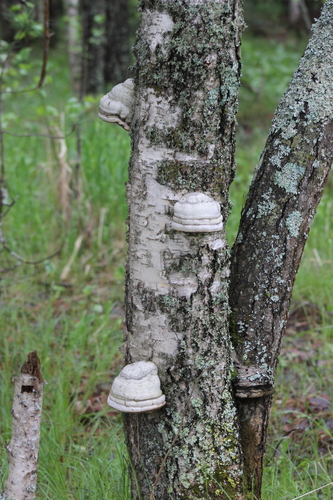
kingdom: Fungi
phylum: Basidiomycota
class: Agaricomycetes
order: Polyporales
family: Polyporaceae
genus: Fomes
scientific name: Fomes fomentarius
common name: Hoof fungus
